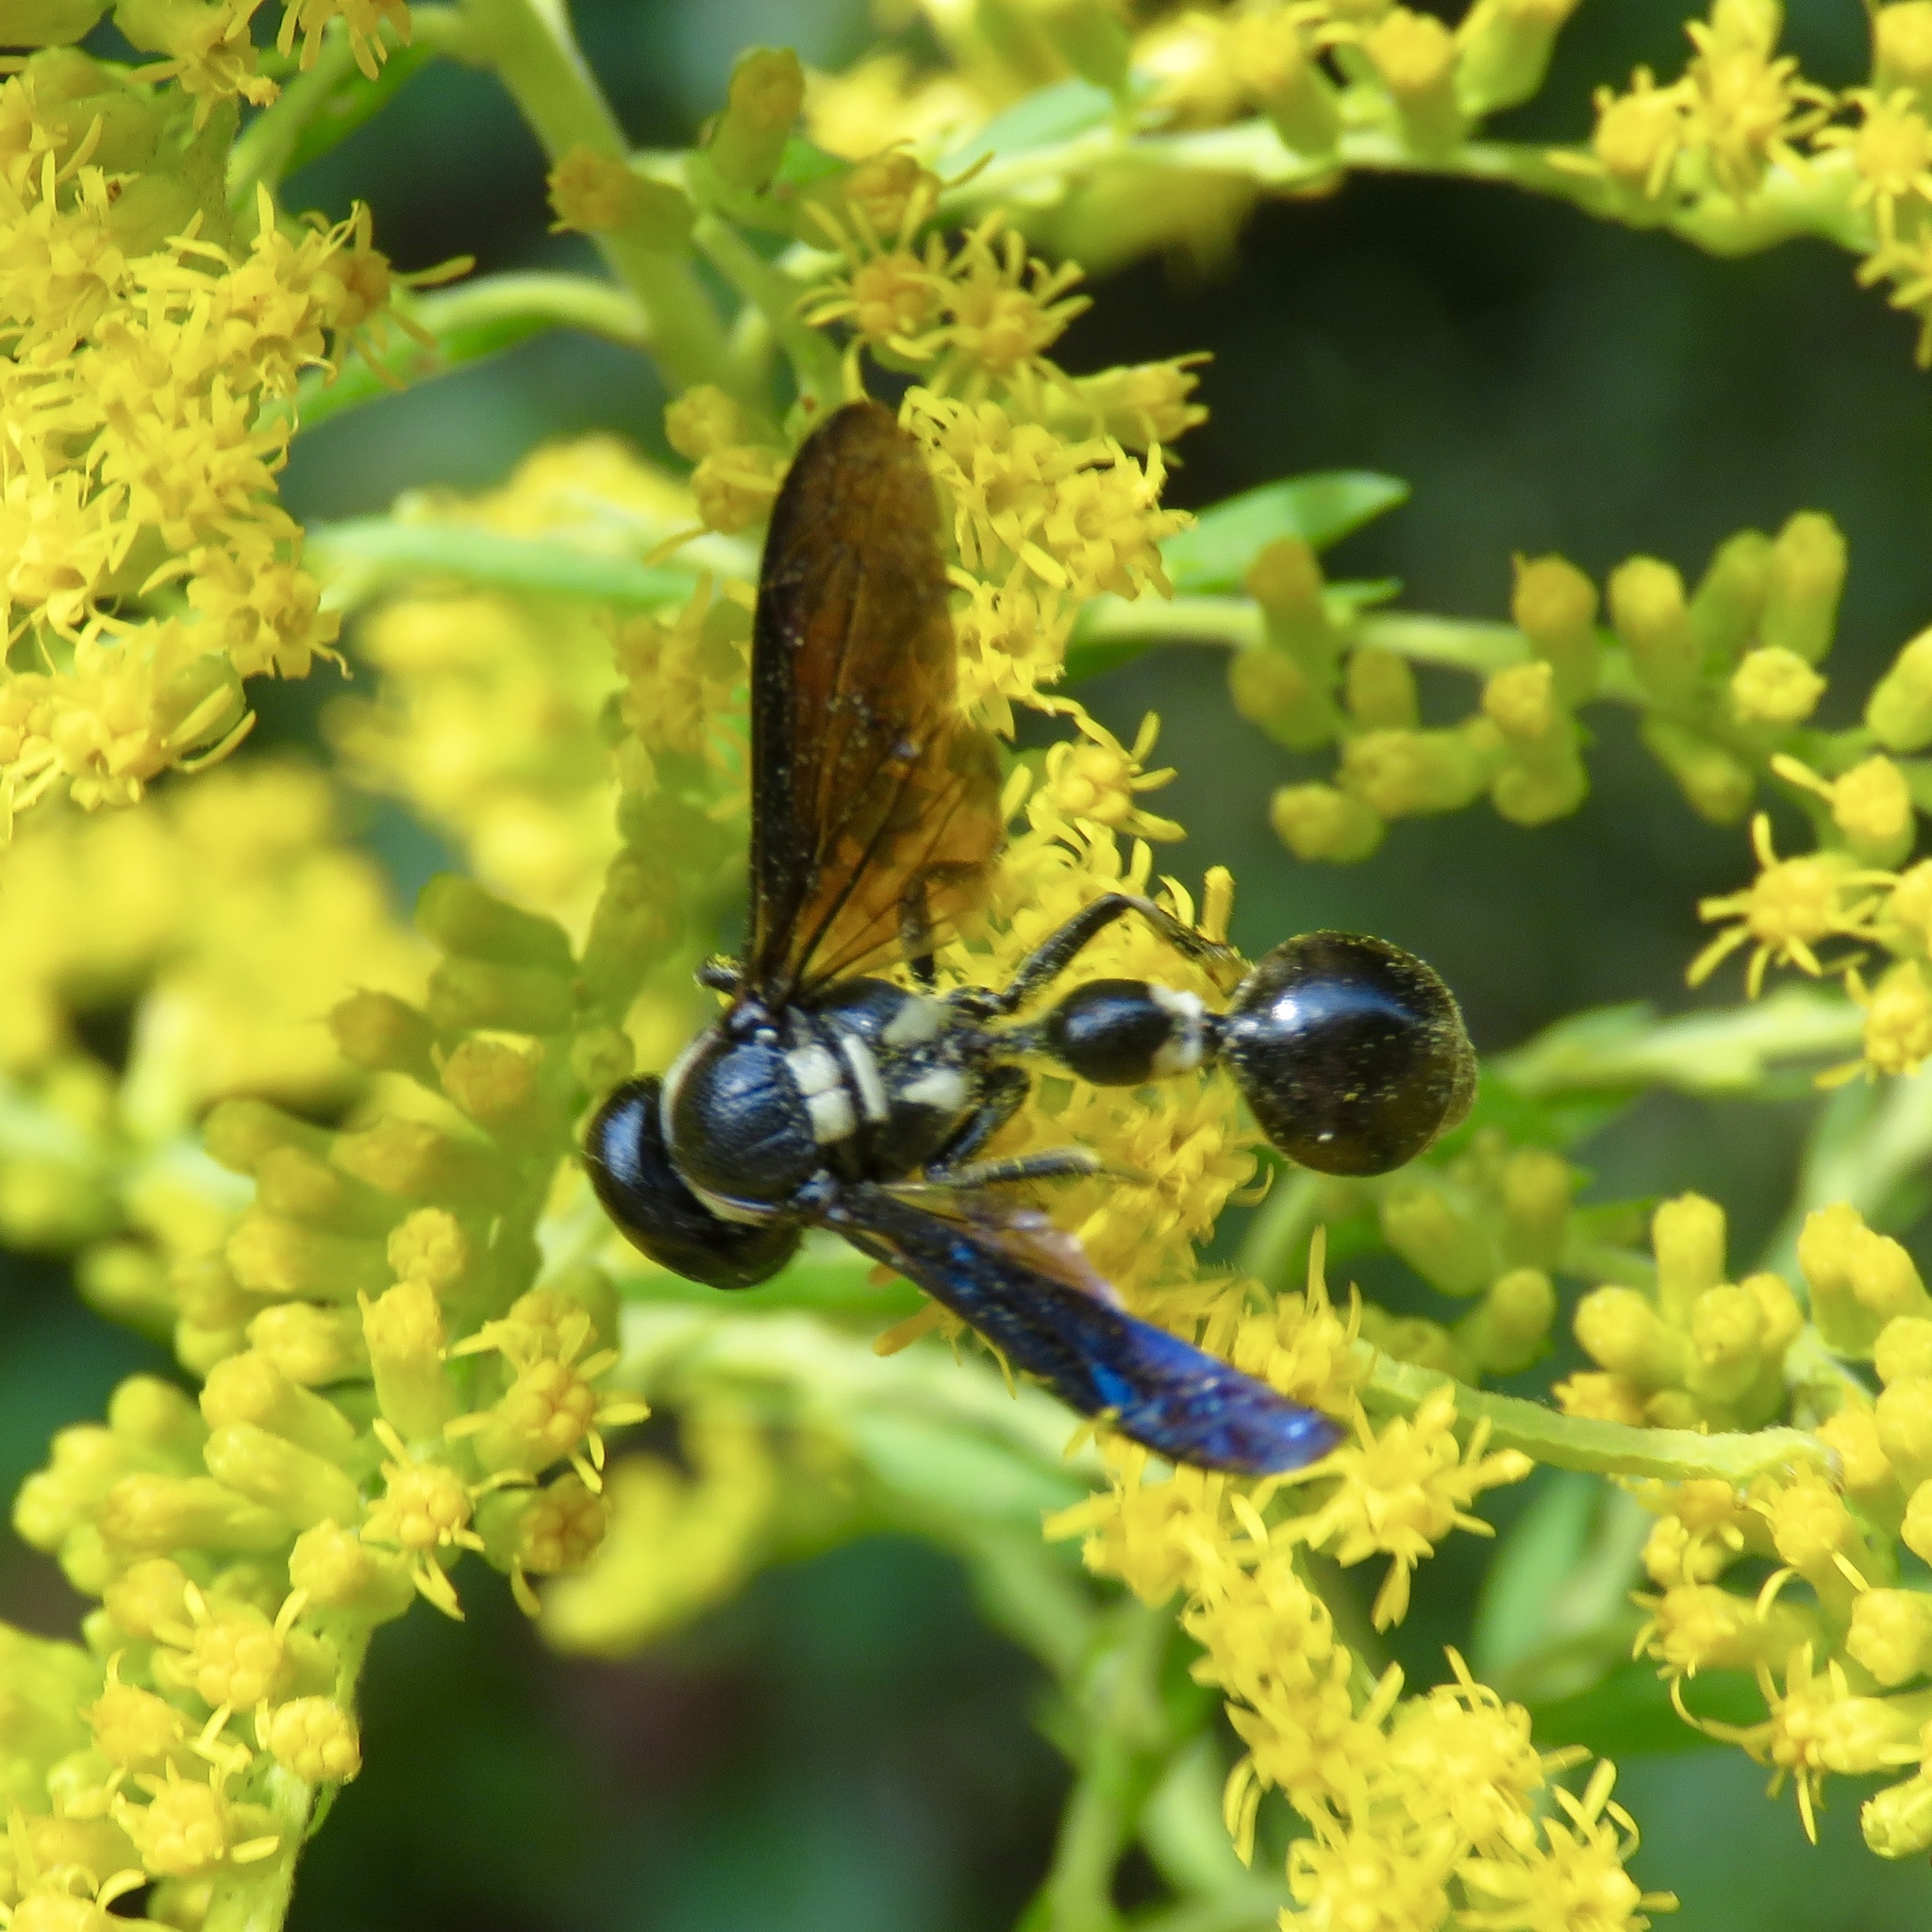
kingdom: Animalia
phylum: Arthropoda
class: Insecta
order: Hymenoptera
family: Eumenidae
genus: Zethus
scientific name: Zethus spinipes
